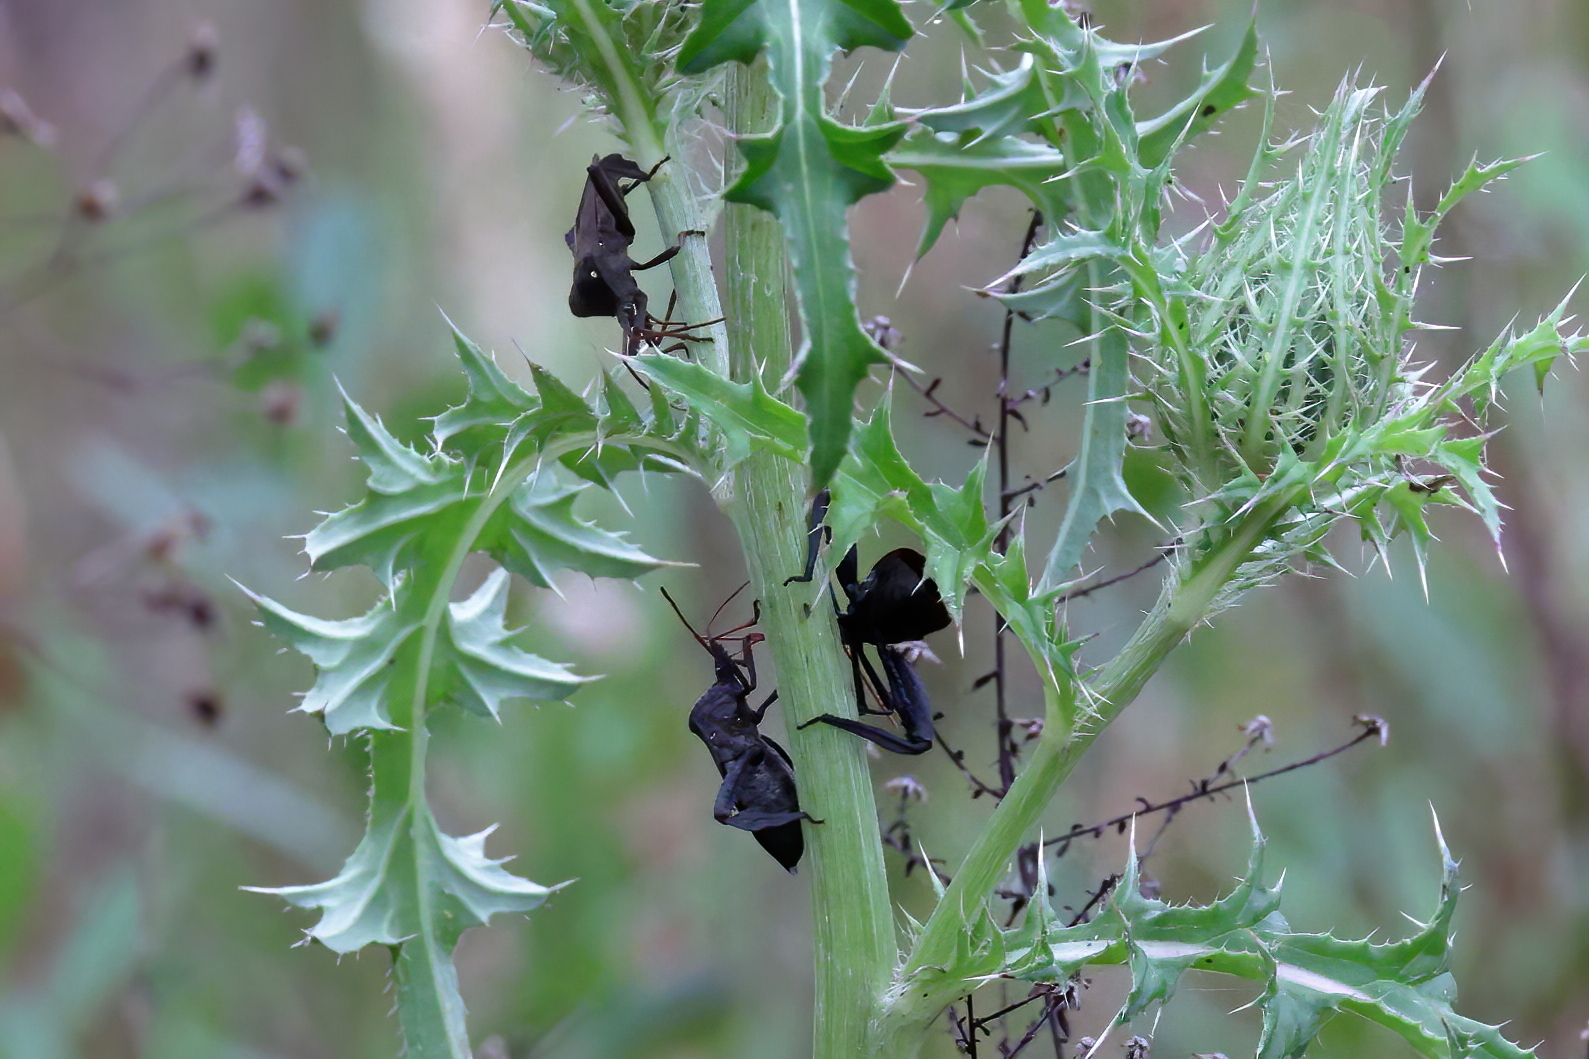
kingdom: Animalia
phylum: Arthropoda
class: Insecta
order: Hemiptera
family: Coreidae
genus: Acanthocephala
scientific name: Acanthocephala femorata
